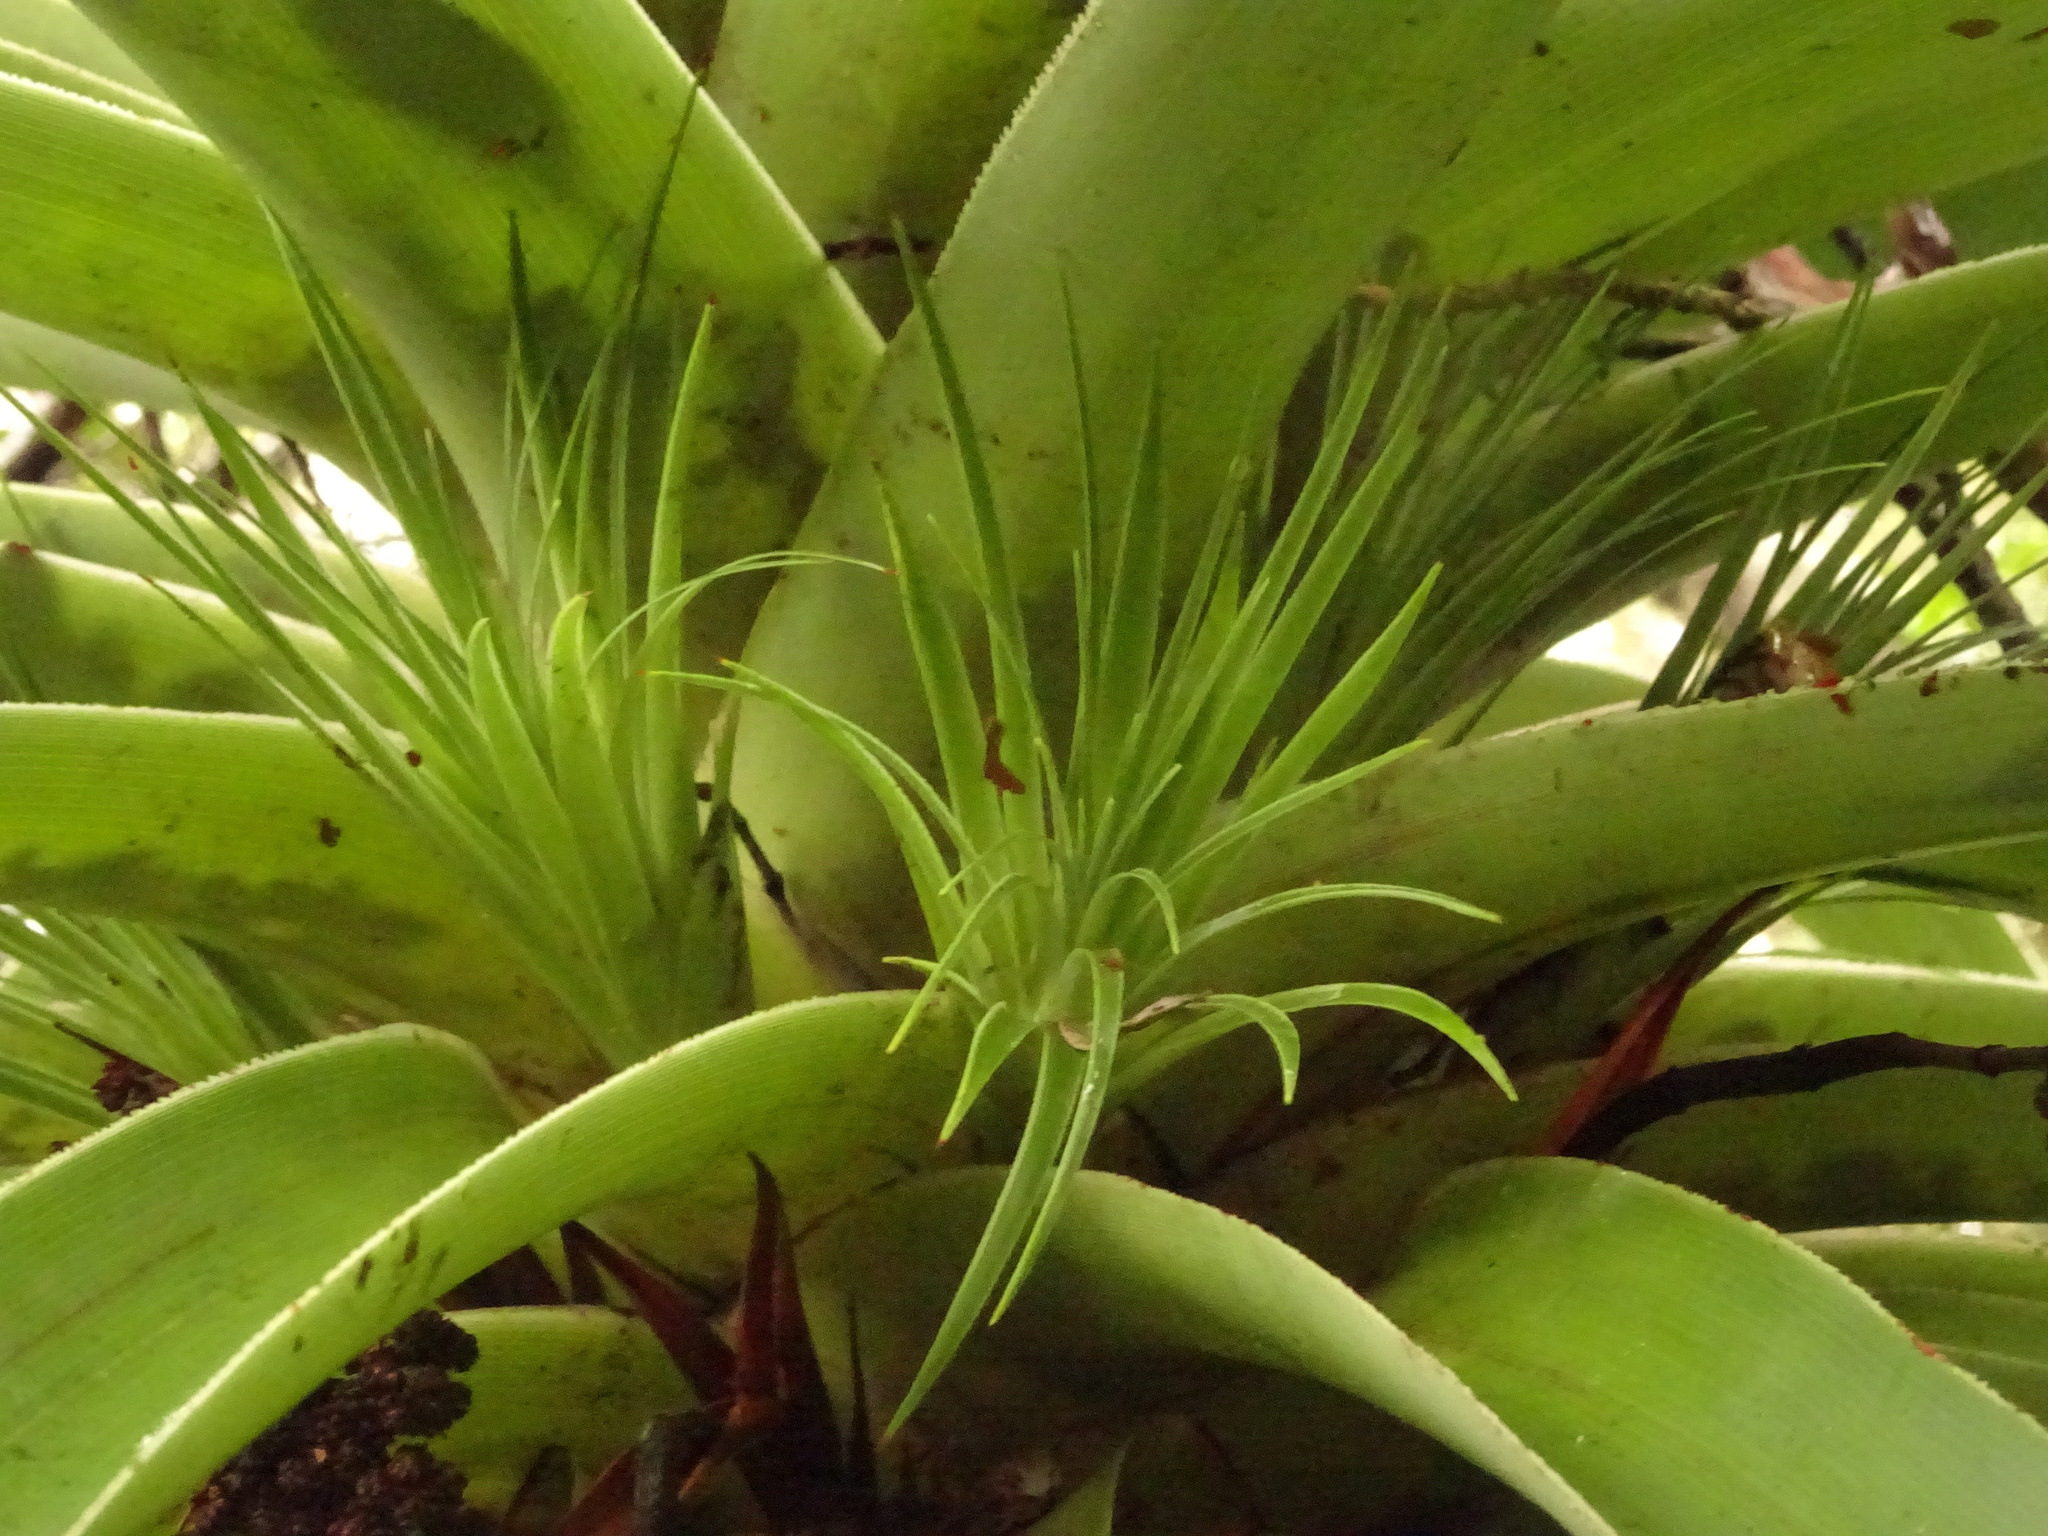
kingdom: Plantae
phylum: Tracheophyta
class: Magnoliopsida
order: Ericales
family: Ericaceae
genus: Dracophyllum
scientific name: Dracophyllum pandanifolium
